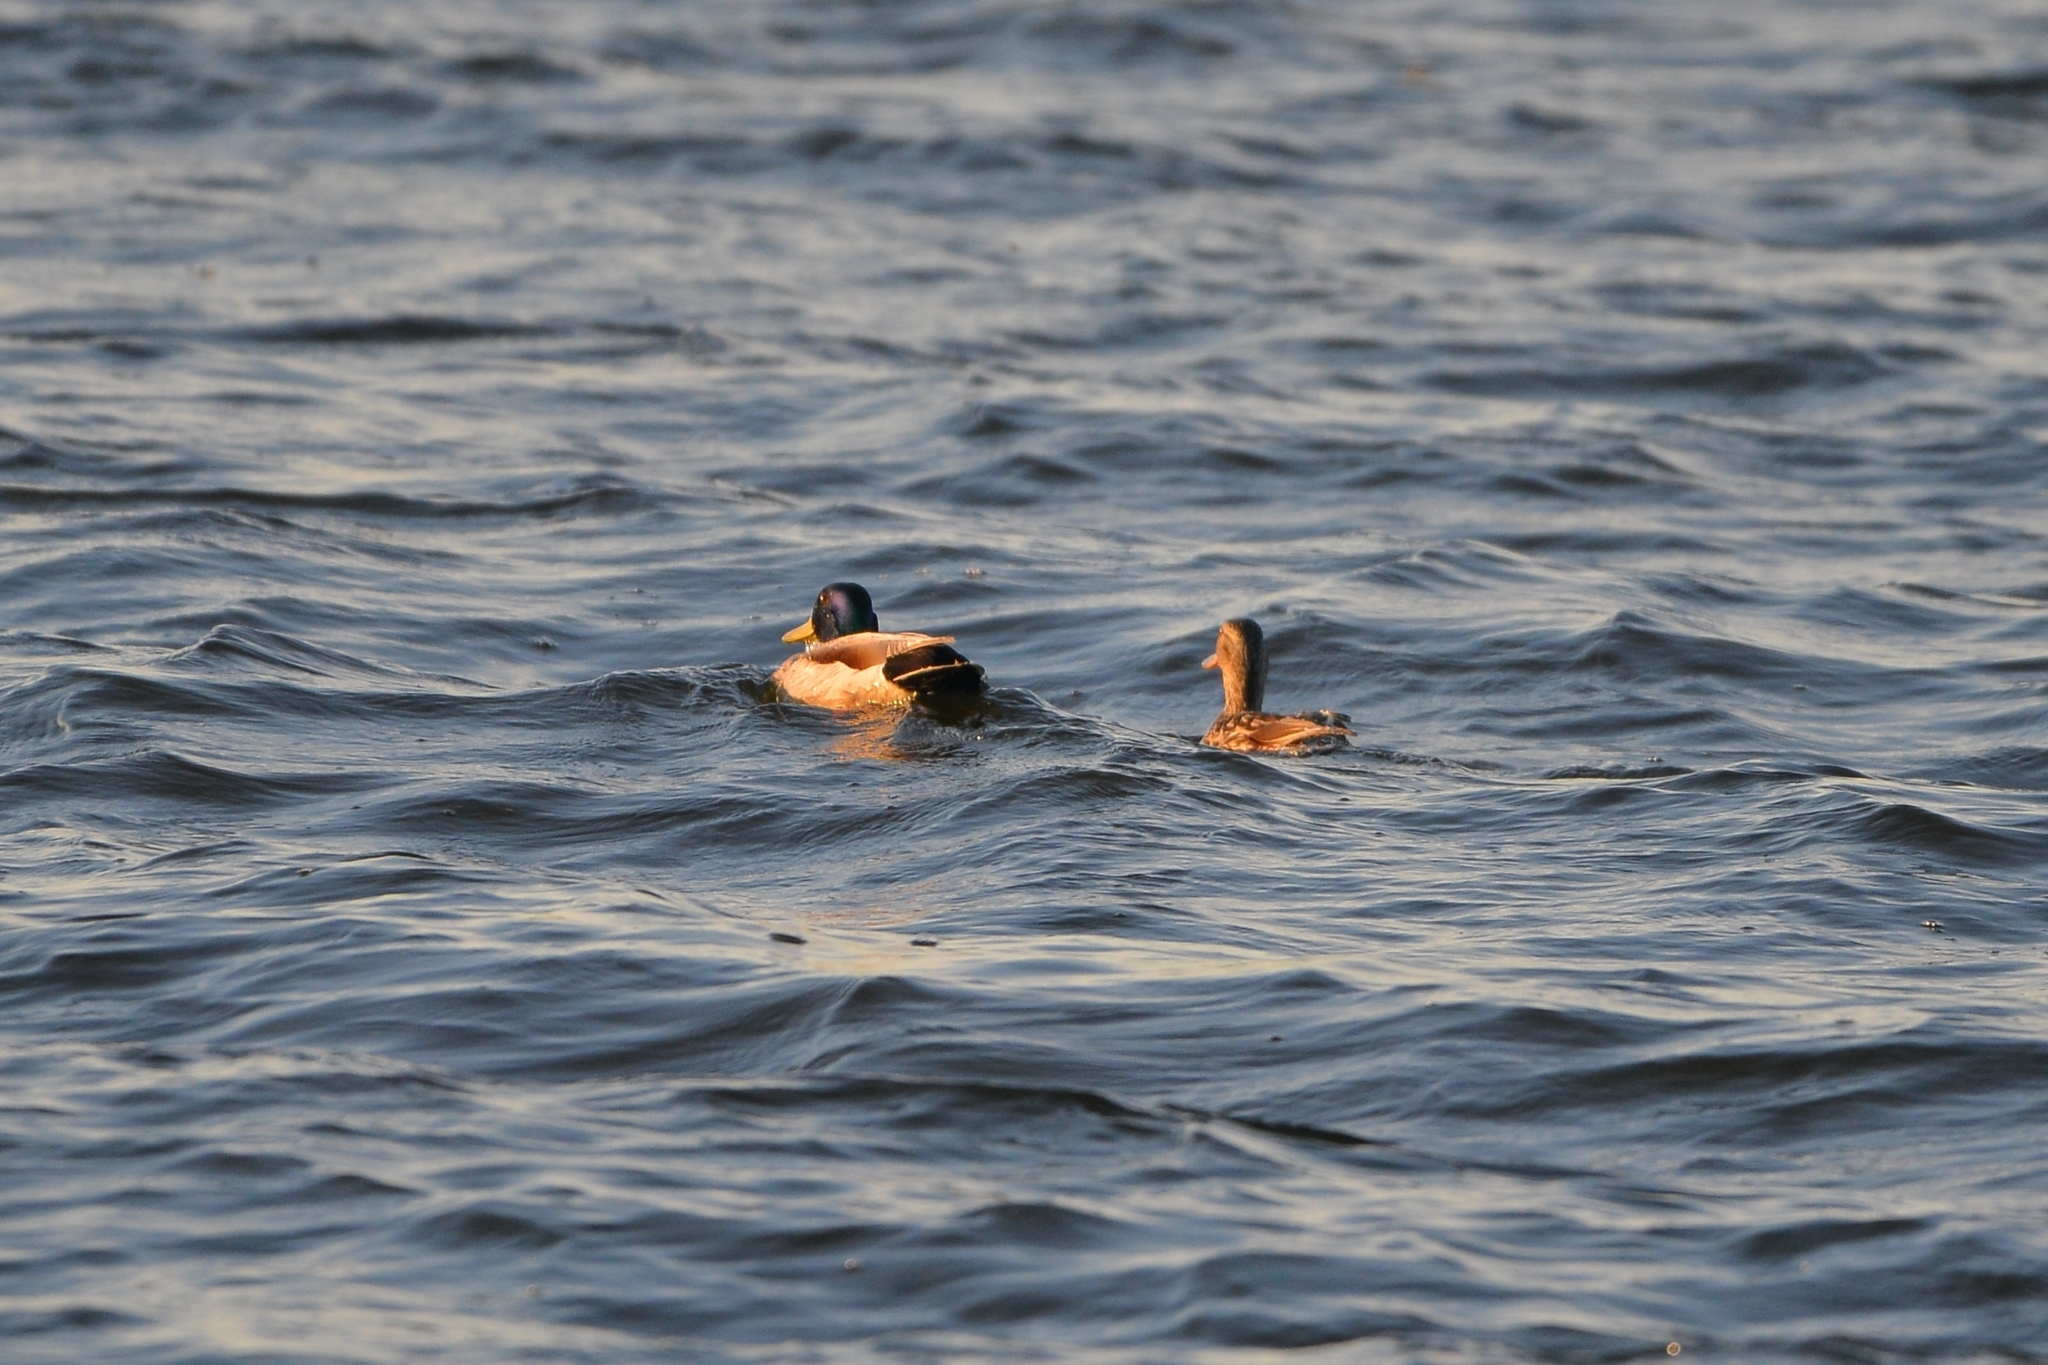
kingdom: Animalia
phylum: Chordata
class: Aves
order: Anseriformes
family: Anatidae
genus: Anas
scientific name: Anas platyrhynchos
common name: Mallard
